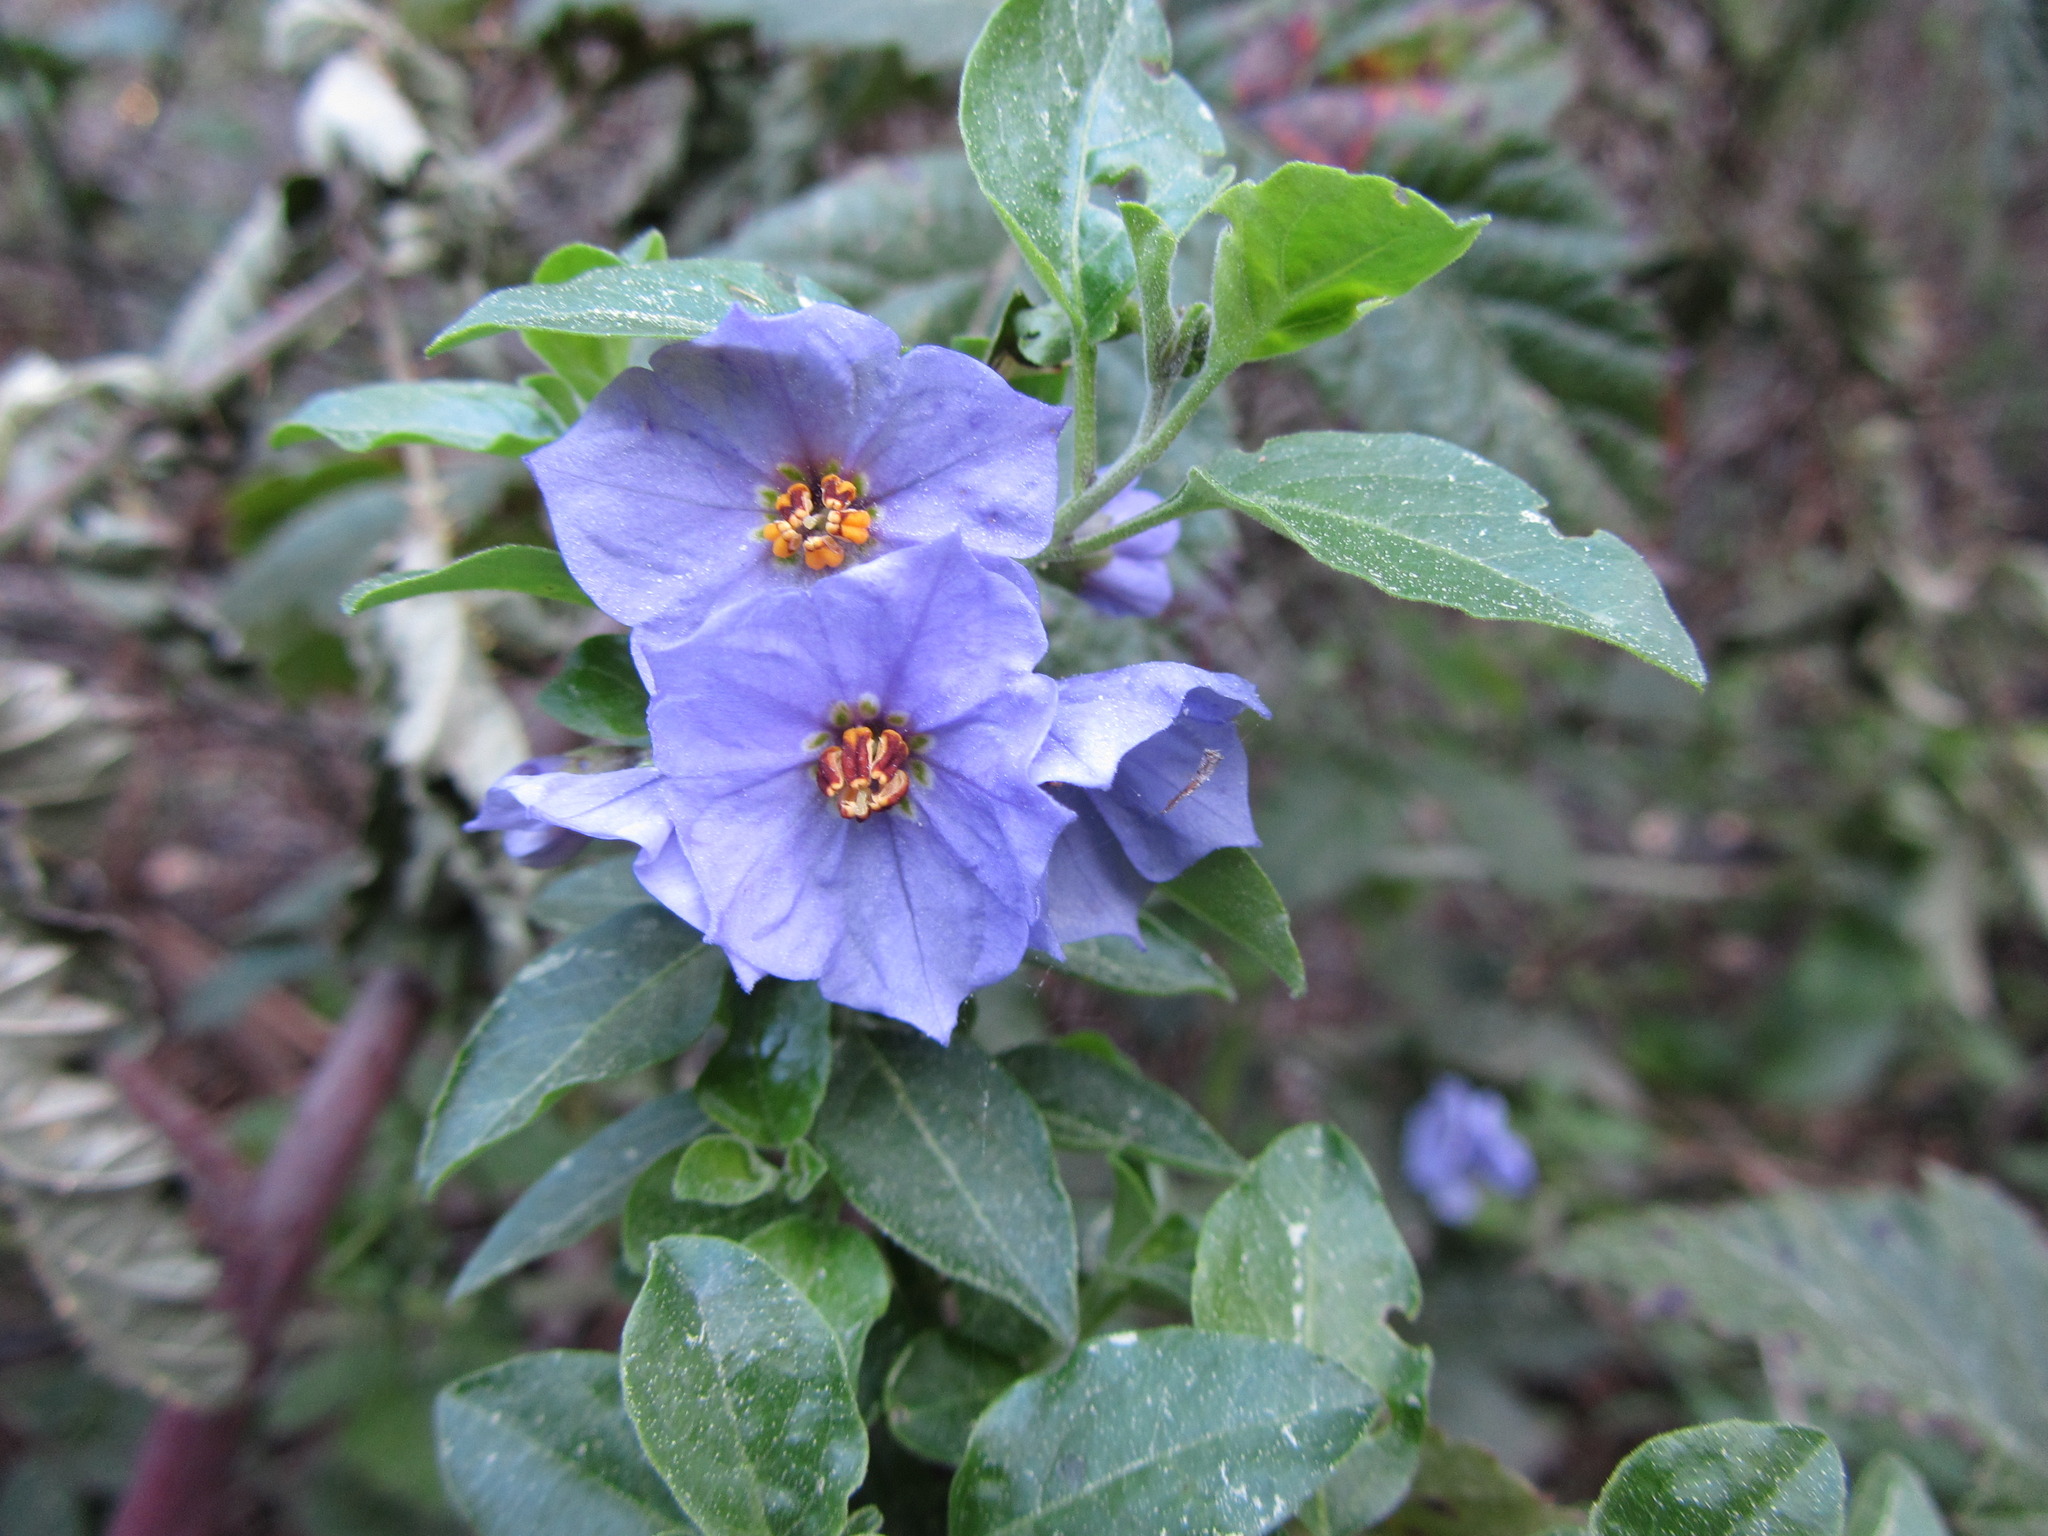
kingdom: Plantae
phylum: Tracheophyta
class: Magnoliopsida
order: Solanales
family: Solanaceae
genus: Solanum
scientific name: Solanum umbelliferum
